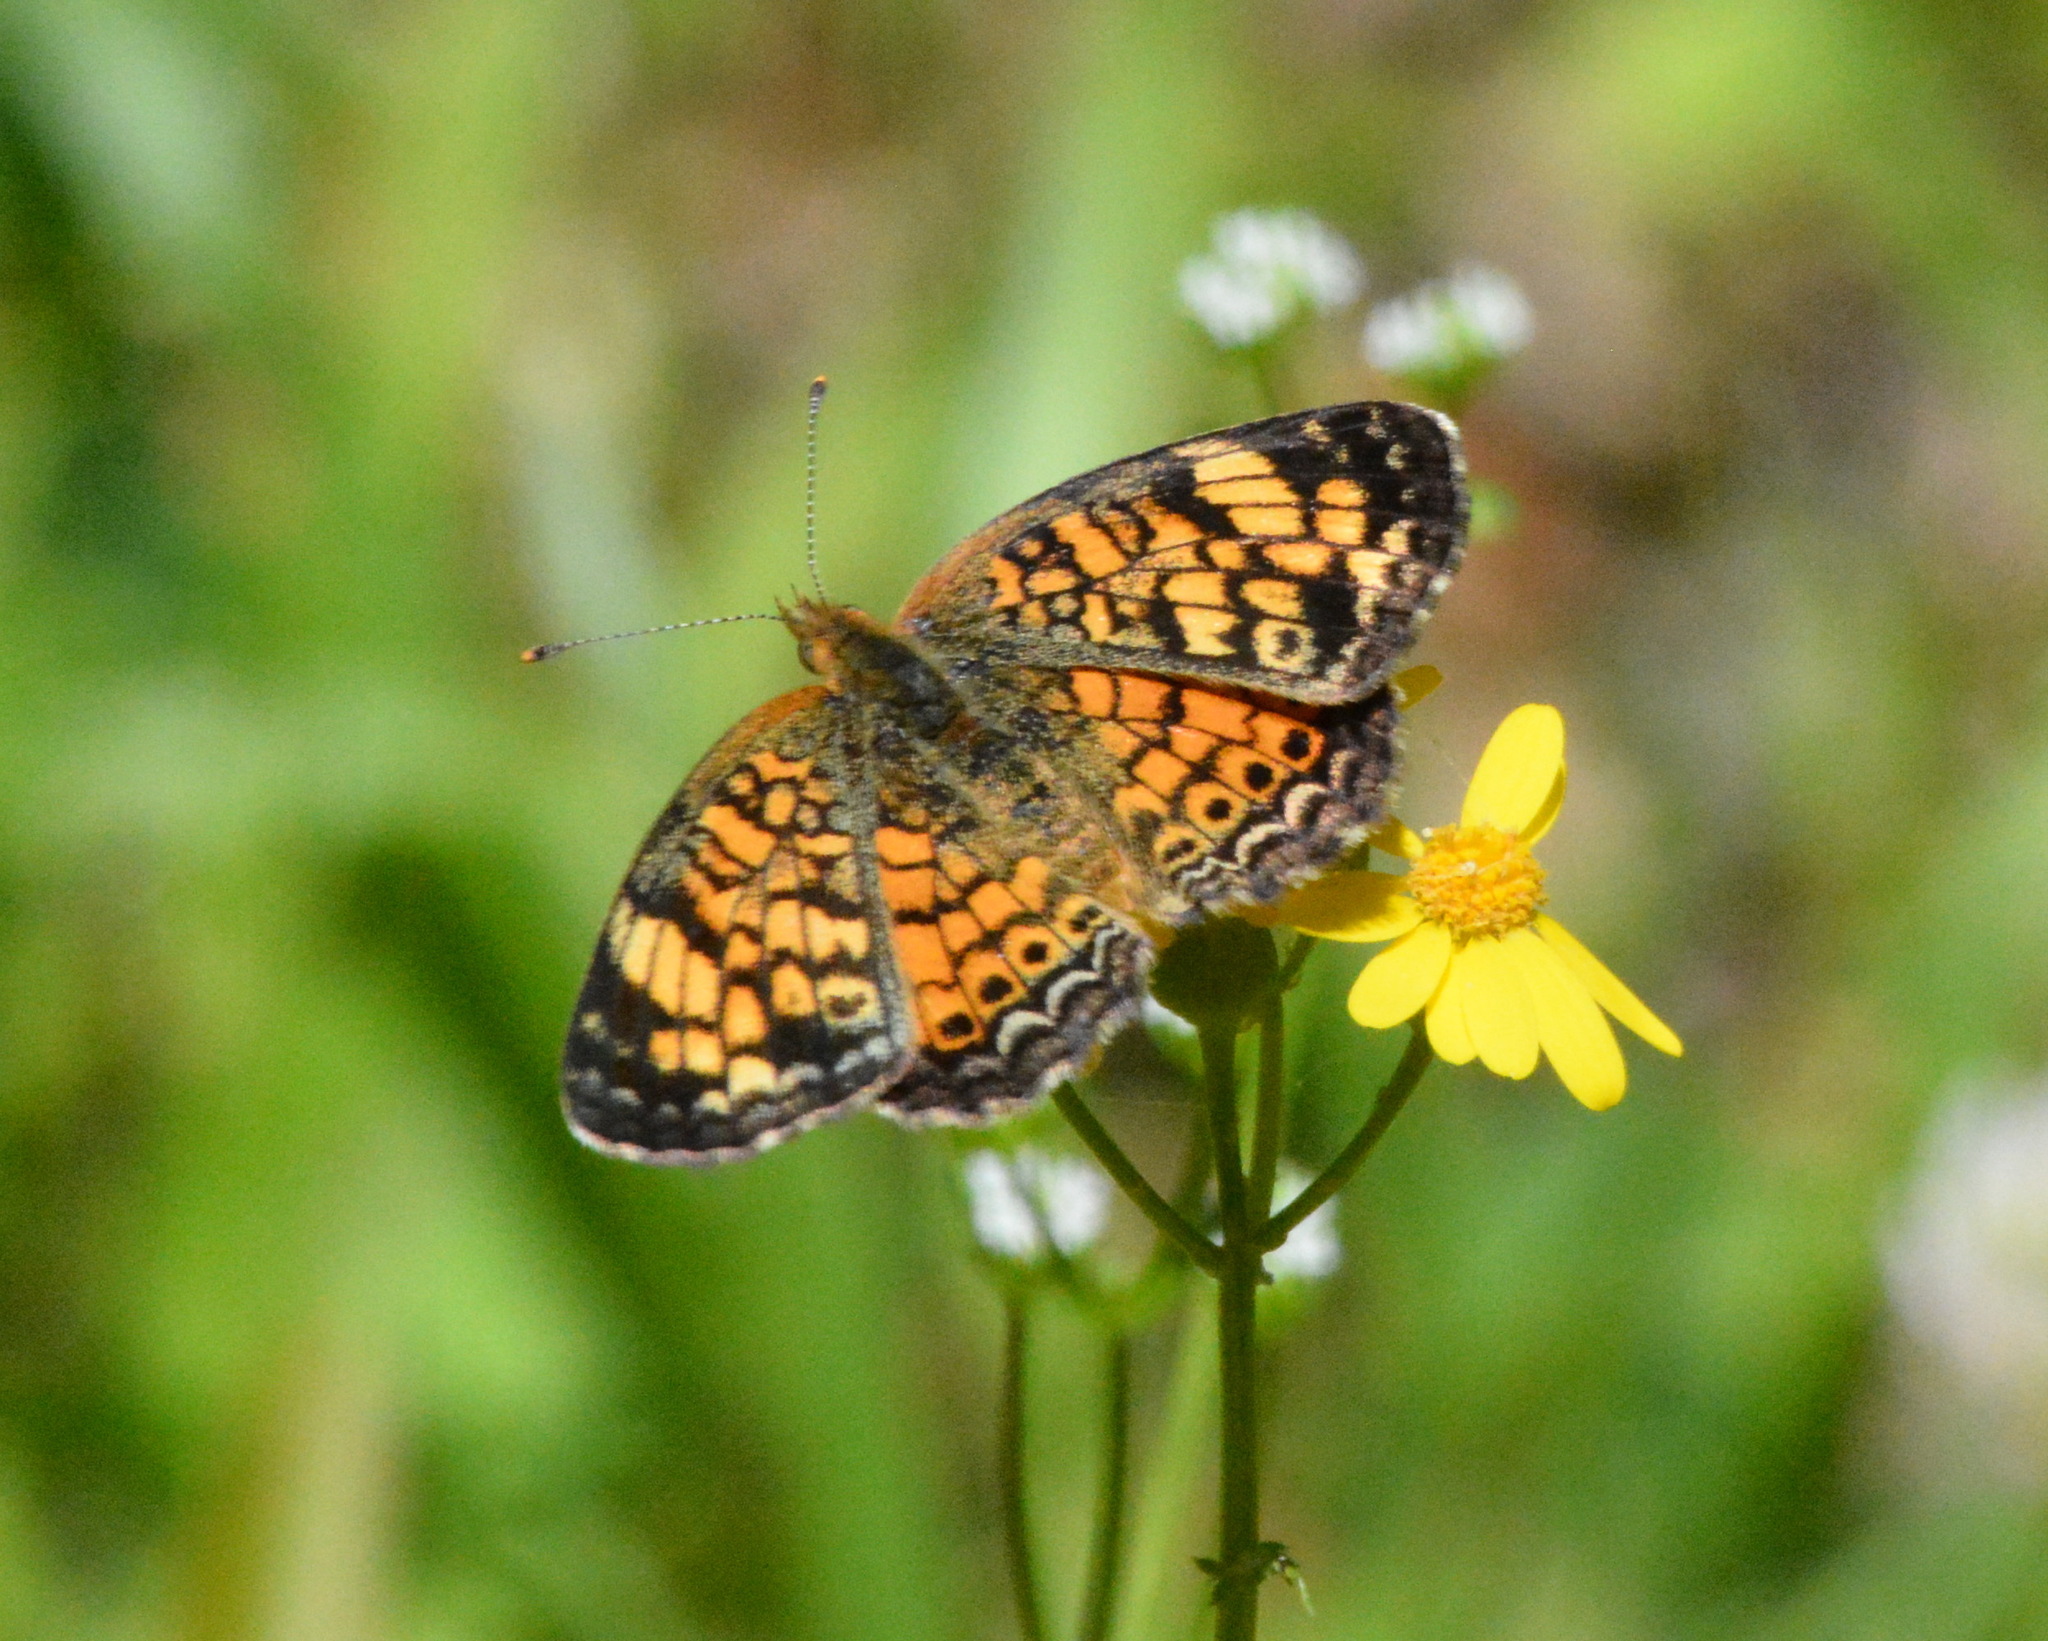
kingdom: Animalia
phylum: Arthropoda
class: Insecta
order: Lepidoptera
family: Nymphalidae
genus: Phyciodes
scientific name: Phyciodes tharos
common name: Pearl crescent
